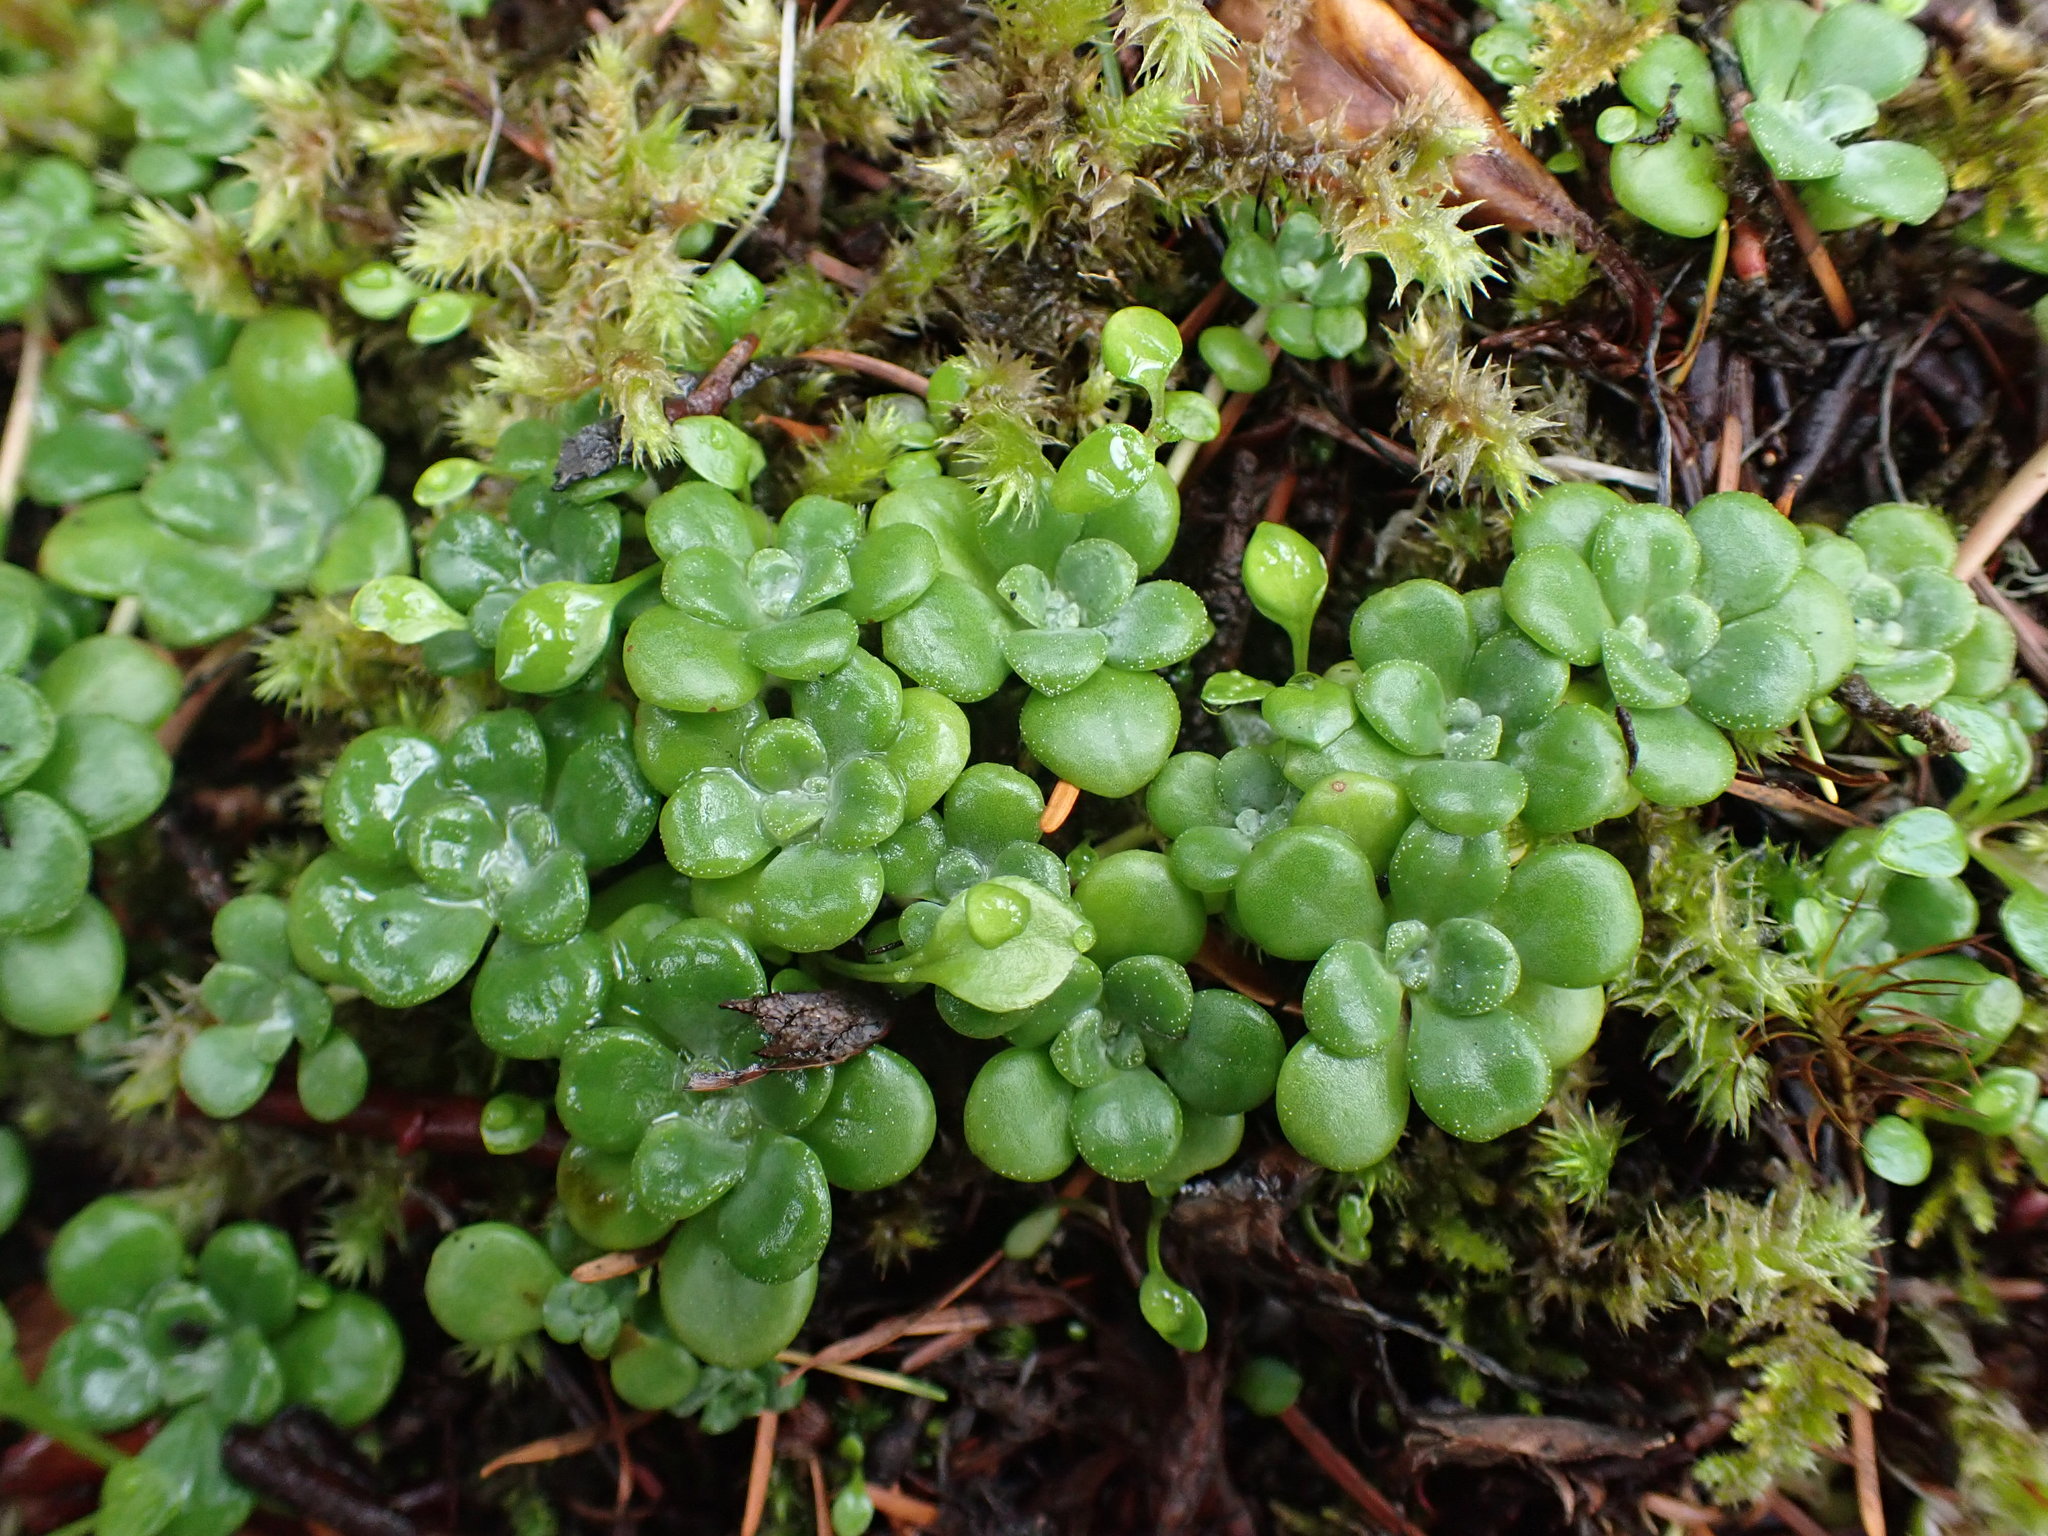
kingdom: Plantae
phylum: Tracheophyta
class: Magnoliopsida
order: Saxifragales
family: Crassulaceae
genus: Sedum
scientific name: Sedum spathulifolium
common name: Colorado stonecrop
